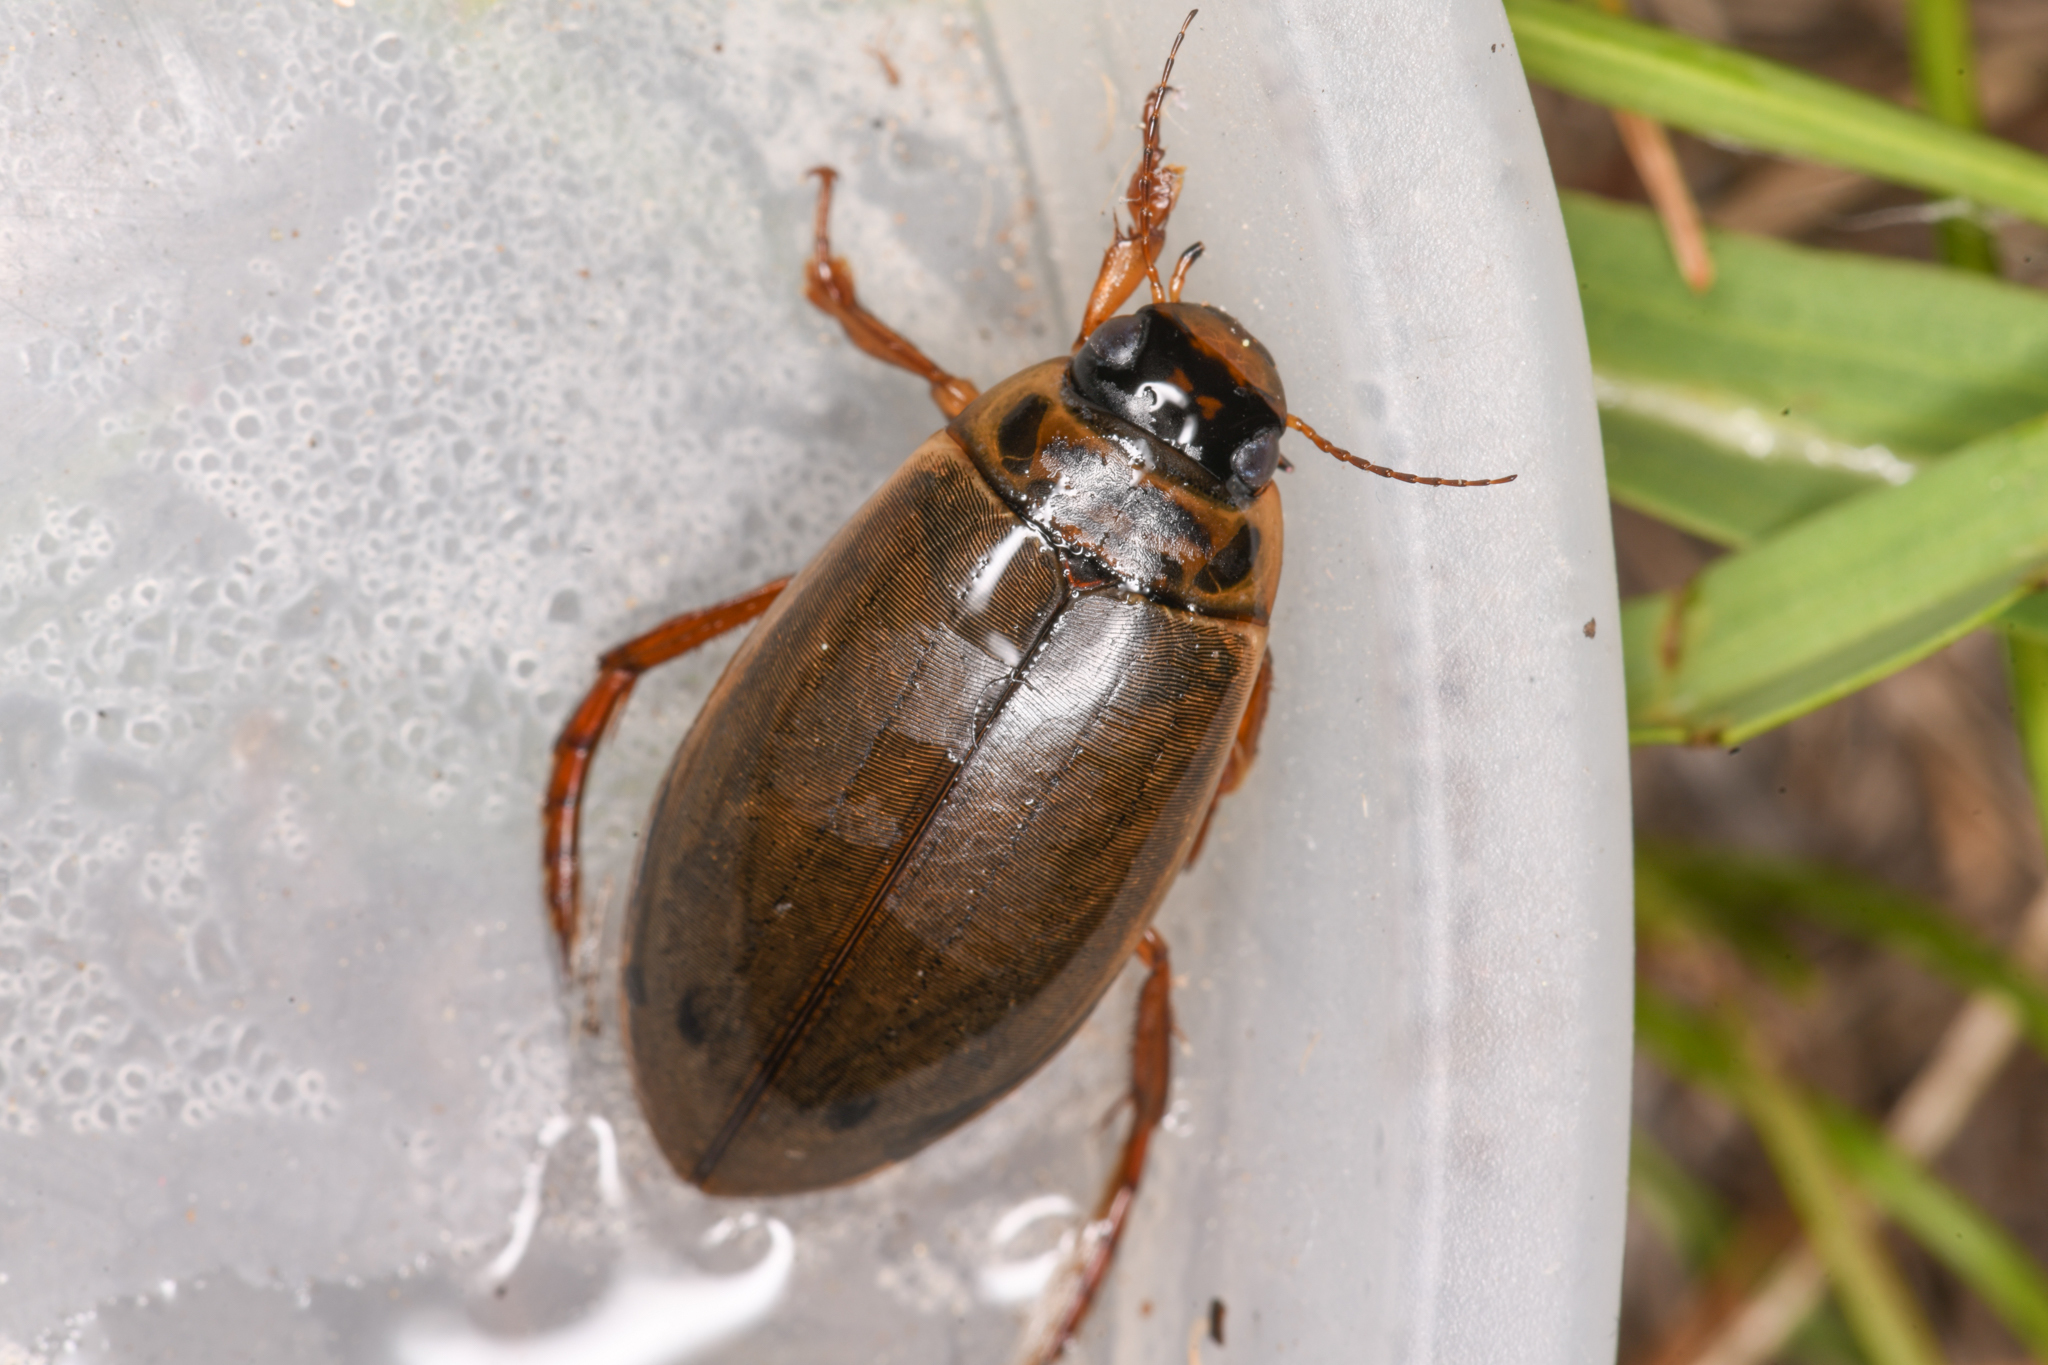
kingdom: Animalia
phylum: Arthropoda
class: Insecta
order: Coleoptera
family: Dytiscidae
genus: Colymbetes
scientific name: Colymbetes
